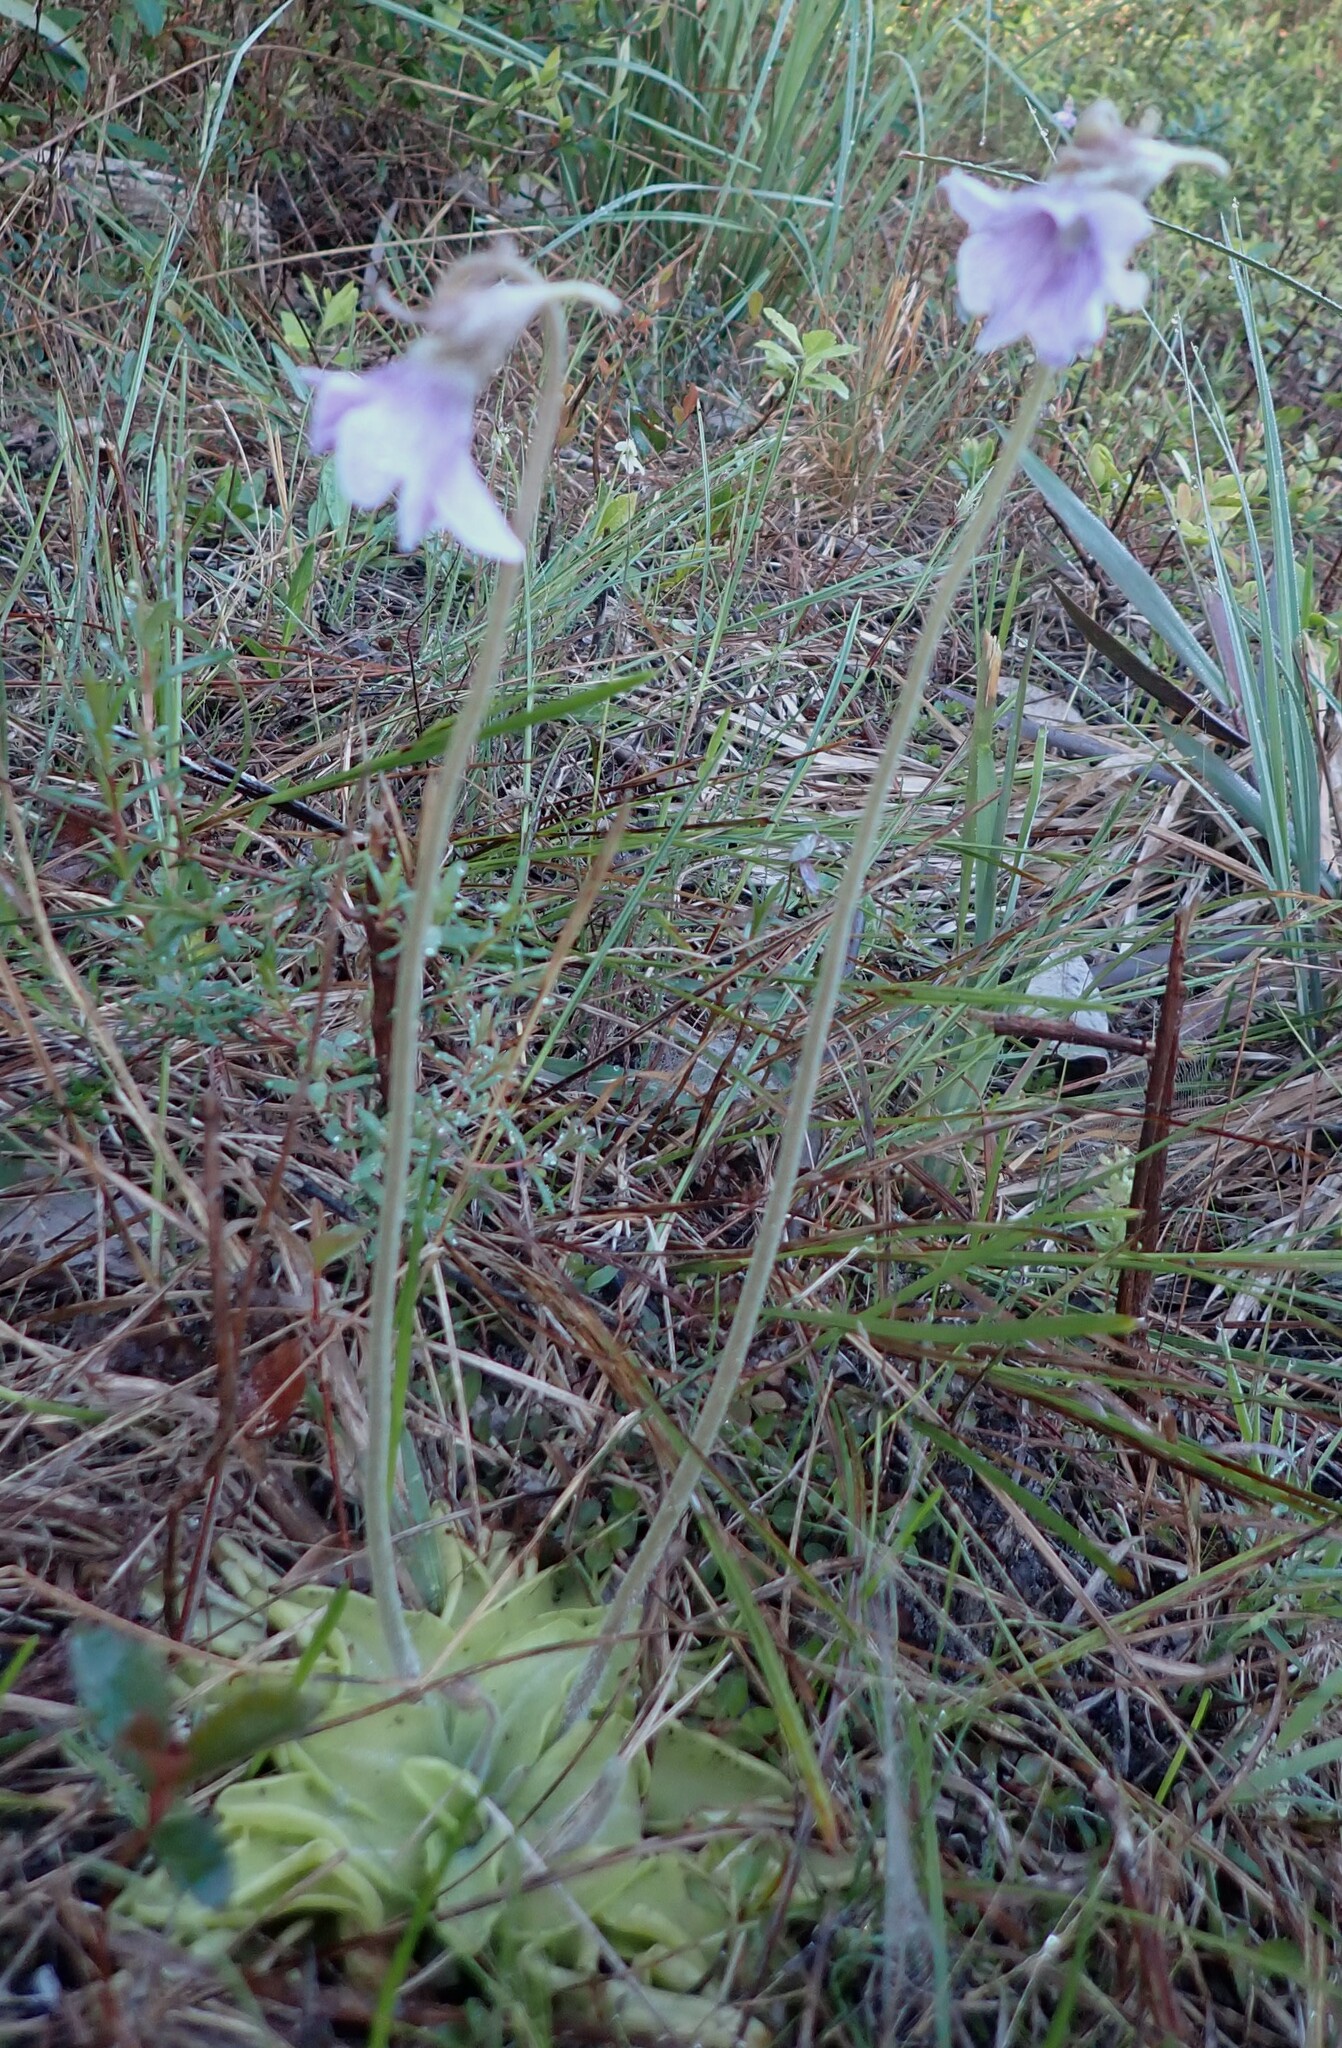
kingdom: Plantae
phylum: Tracheophyta
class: Magnoliopsida
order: Lamiales
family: Lentibulariaceae
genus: Pinguicula
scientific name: Pinguicula caerulea
